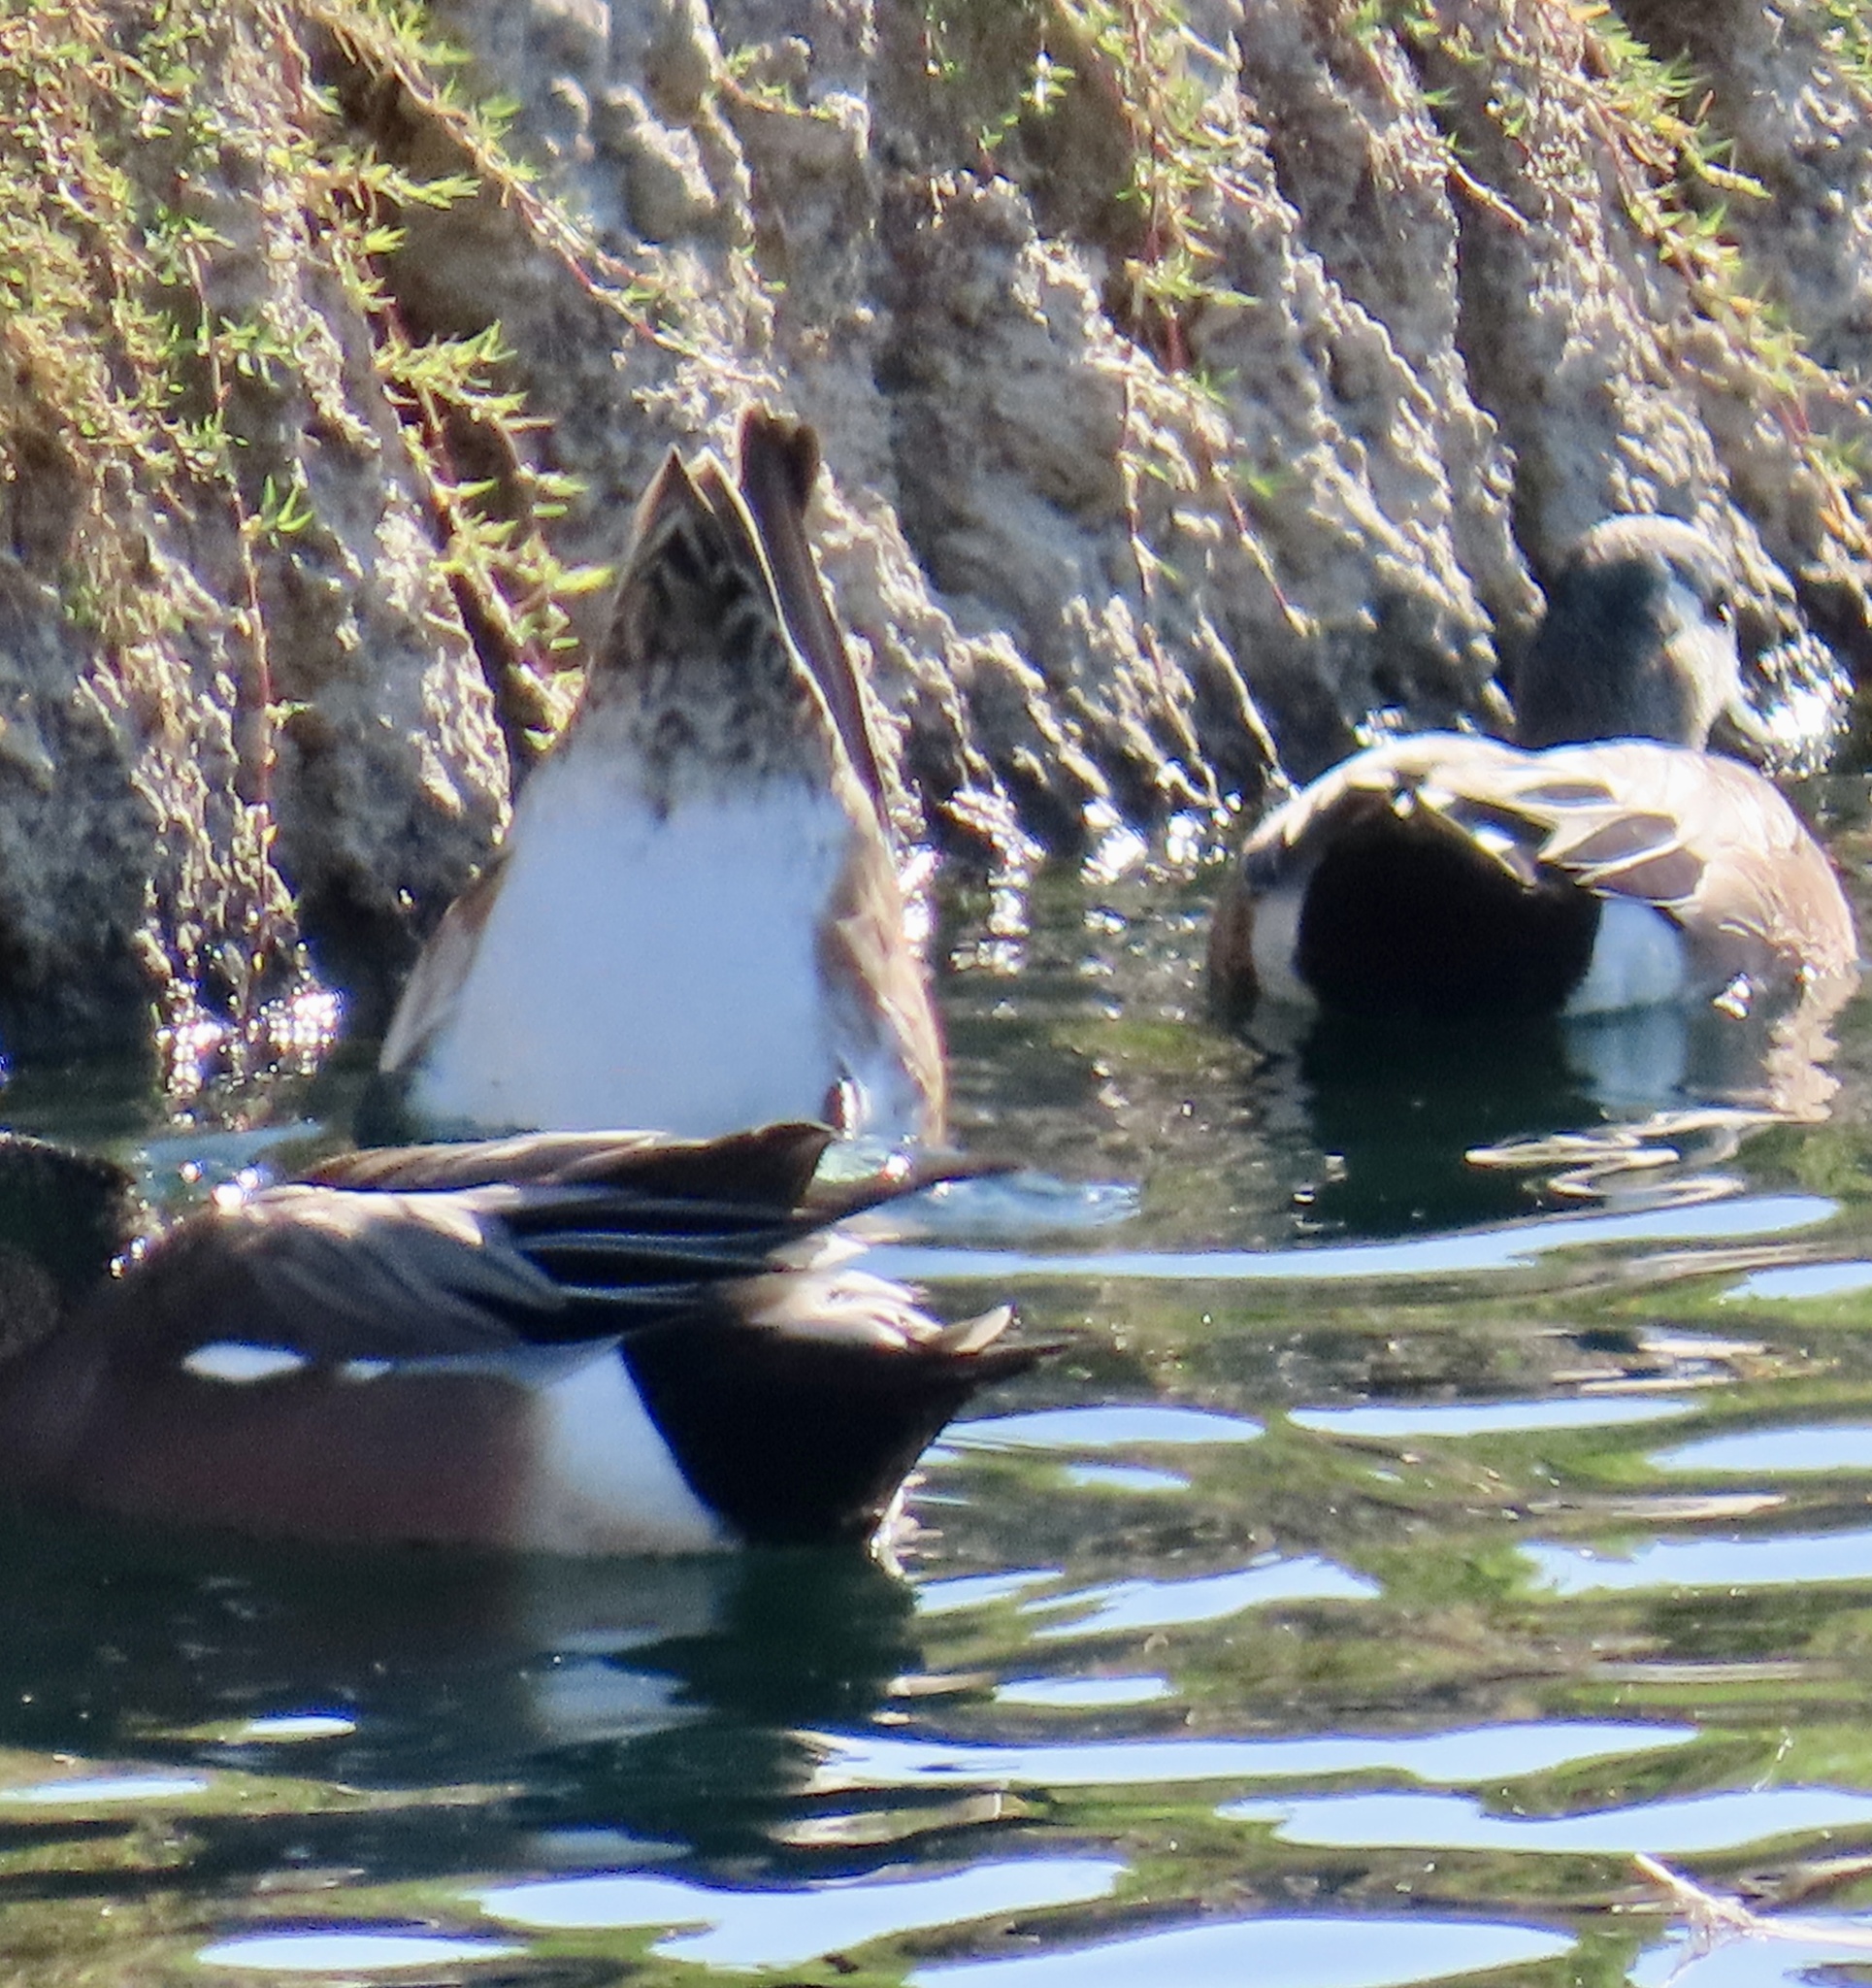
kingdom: Animalia
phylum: Chordata
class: Aves
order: Anseriformes
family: Anatidae
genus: Mareca
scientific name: Mareca americana
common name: American wigeon
